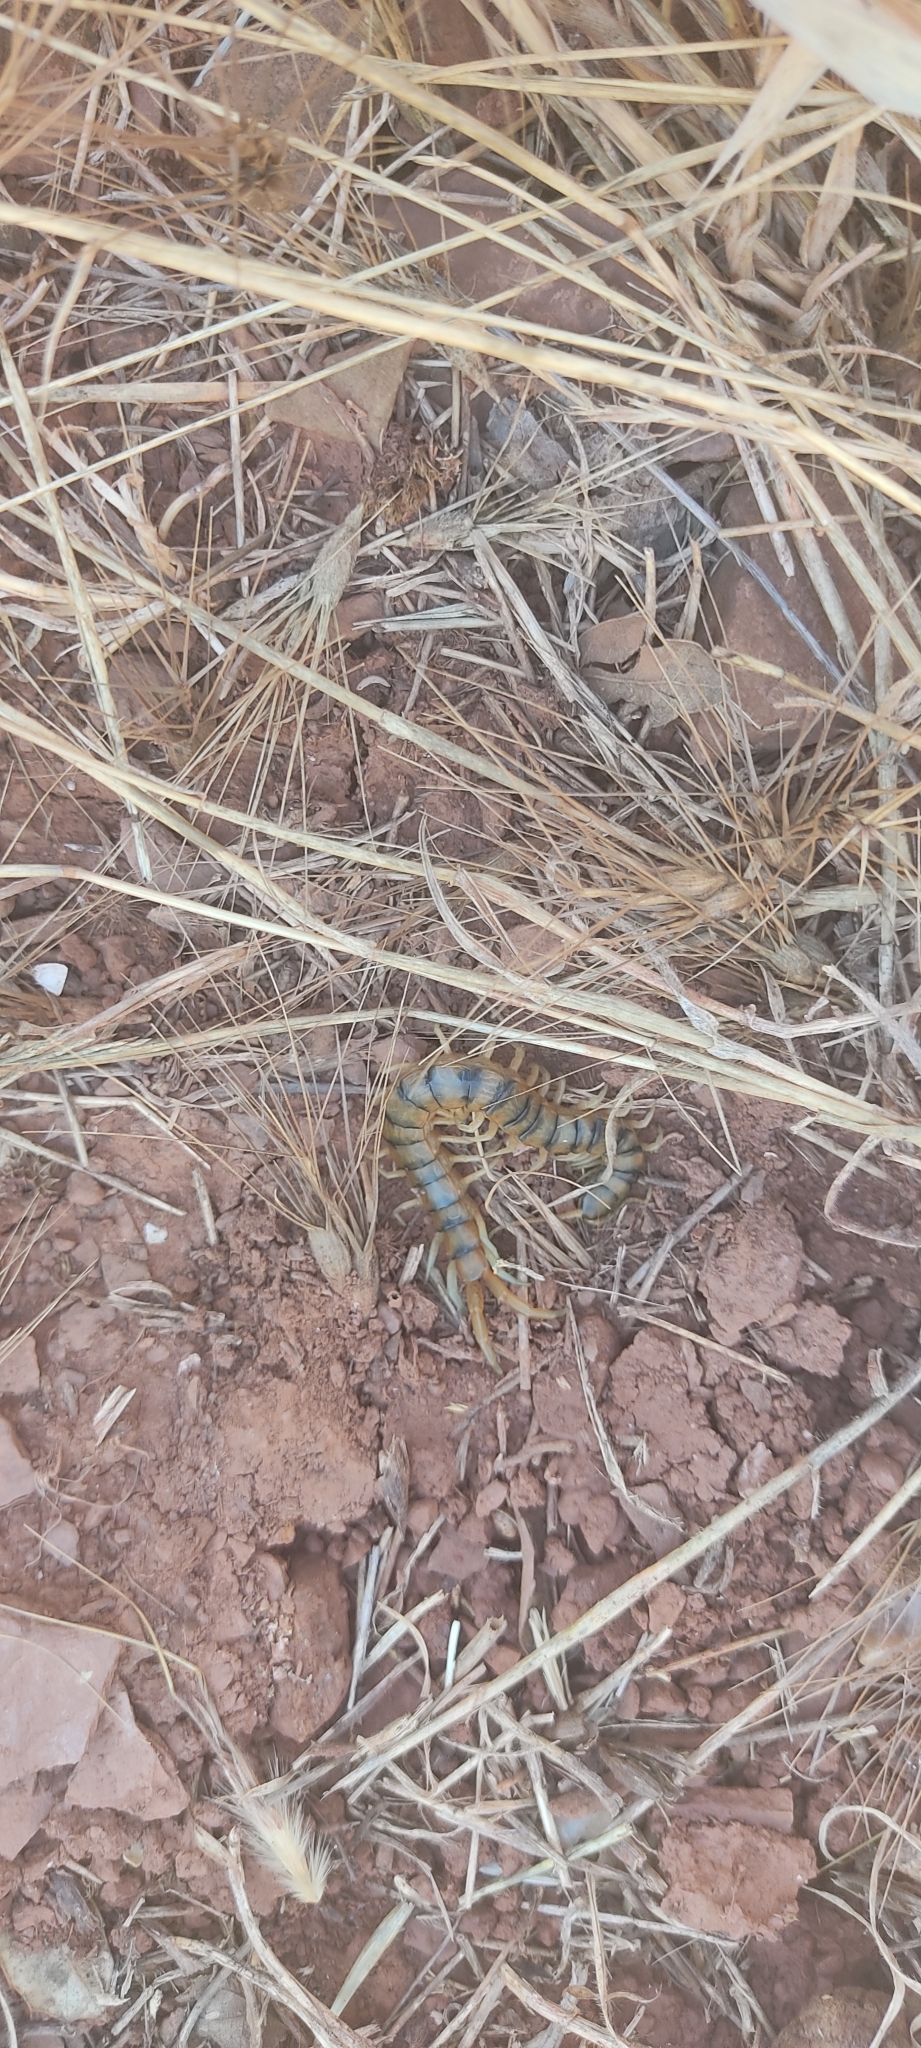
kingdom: Animalia
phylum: Arthropoda
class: Chilopoda
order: Scolopendromorpha
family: Scolopendridae
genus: Scolopendra
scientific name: Scolopendra cingulata
